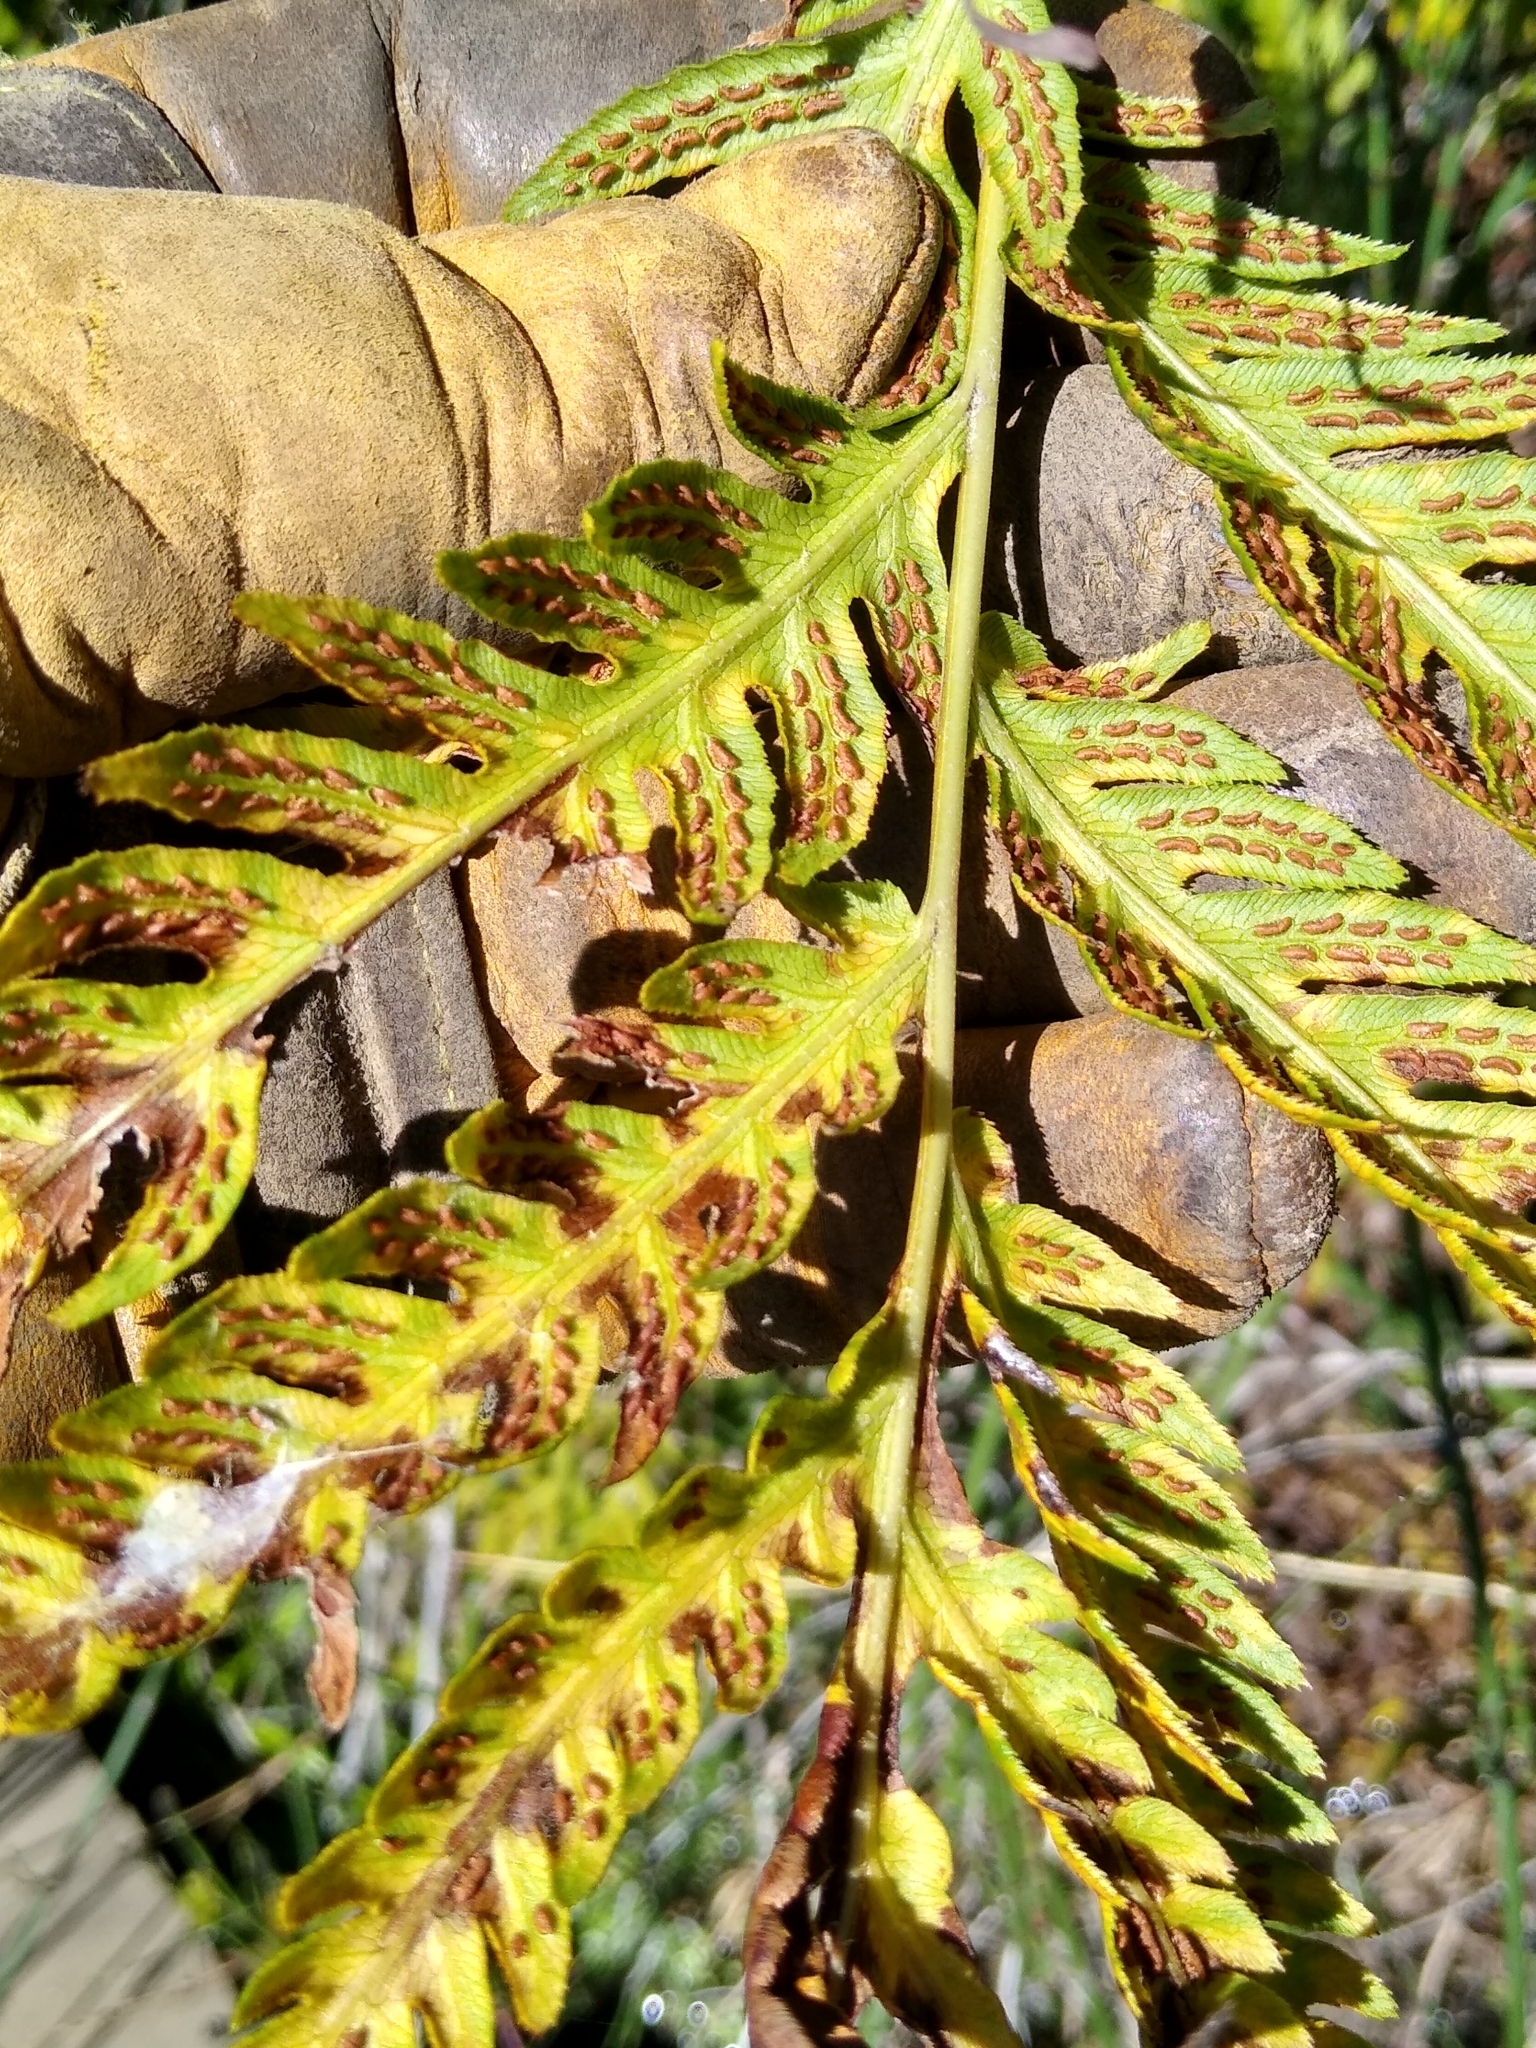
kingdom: Plantae
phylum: Tracheophyta
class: Polypodiopsida
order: Polypodiales
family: Blechnaceae
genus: Woodwardia
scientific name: Woodwardia fimbriata
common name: Giant chain fern
